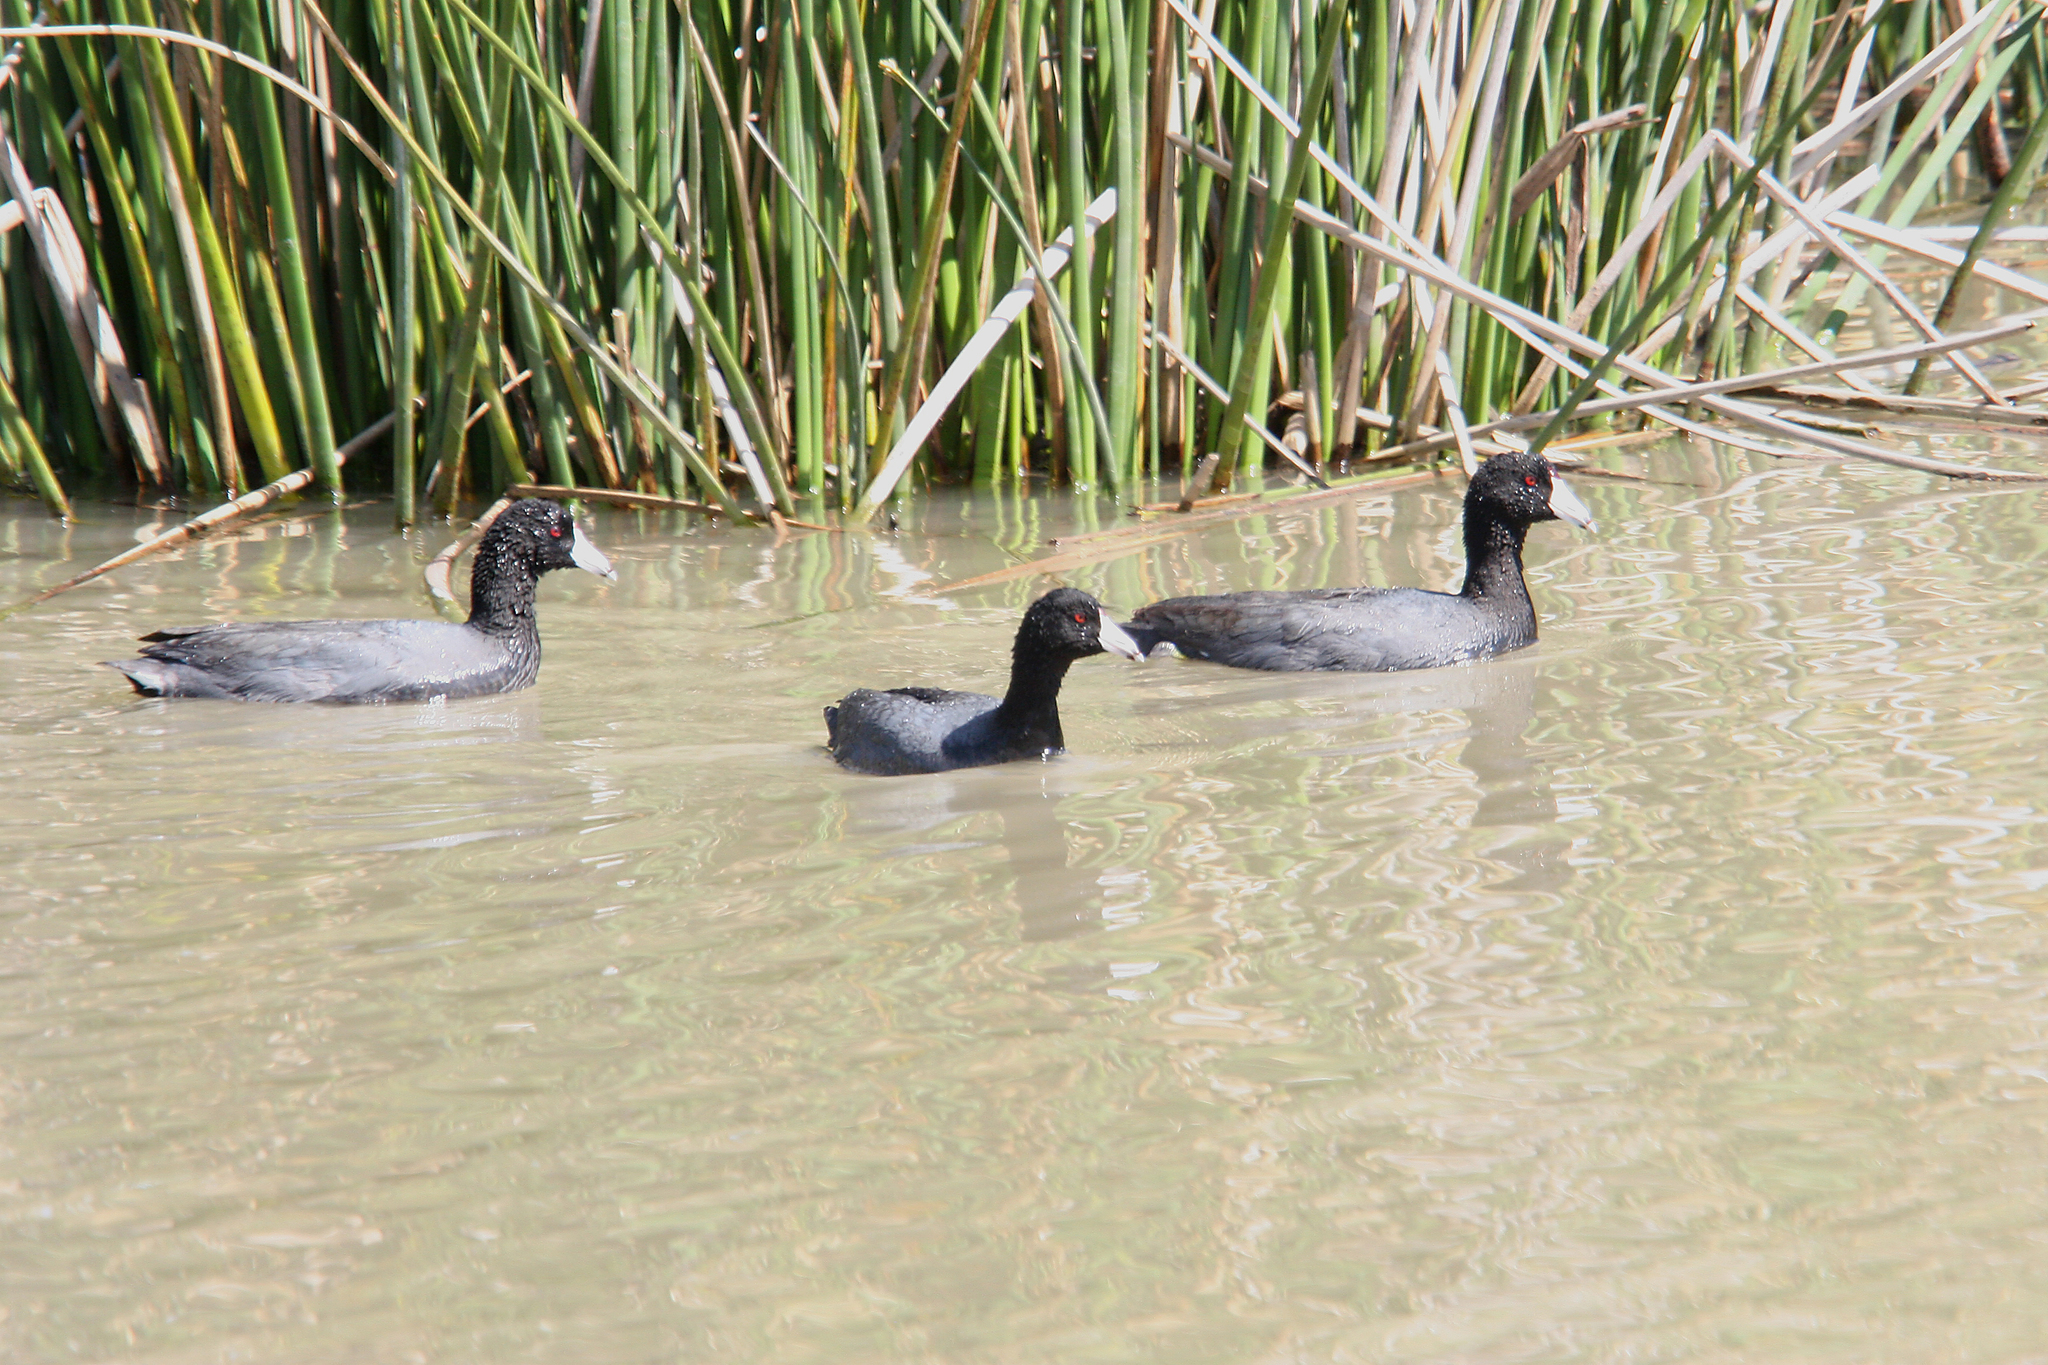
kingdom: Animalia
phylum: Chordata
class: Aves
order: Gruiformes
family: Rallidae
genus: Fulica
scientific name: Fulica americana
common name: American coot
